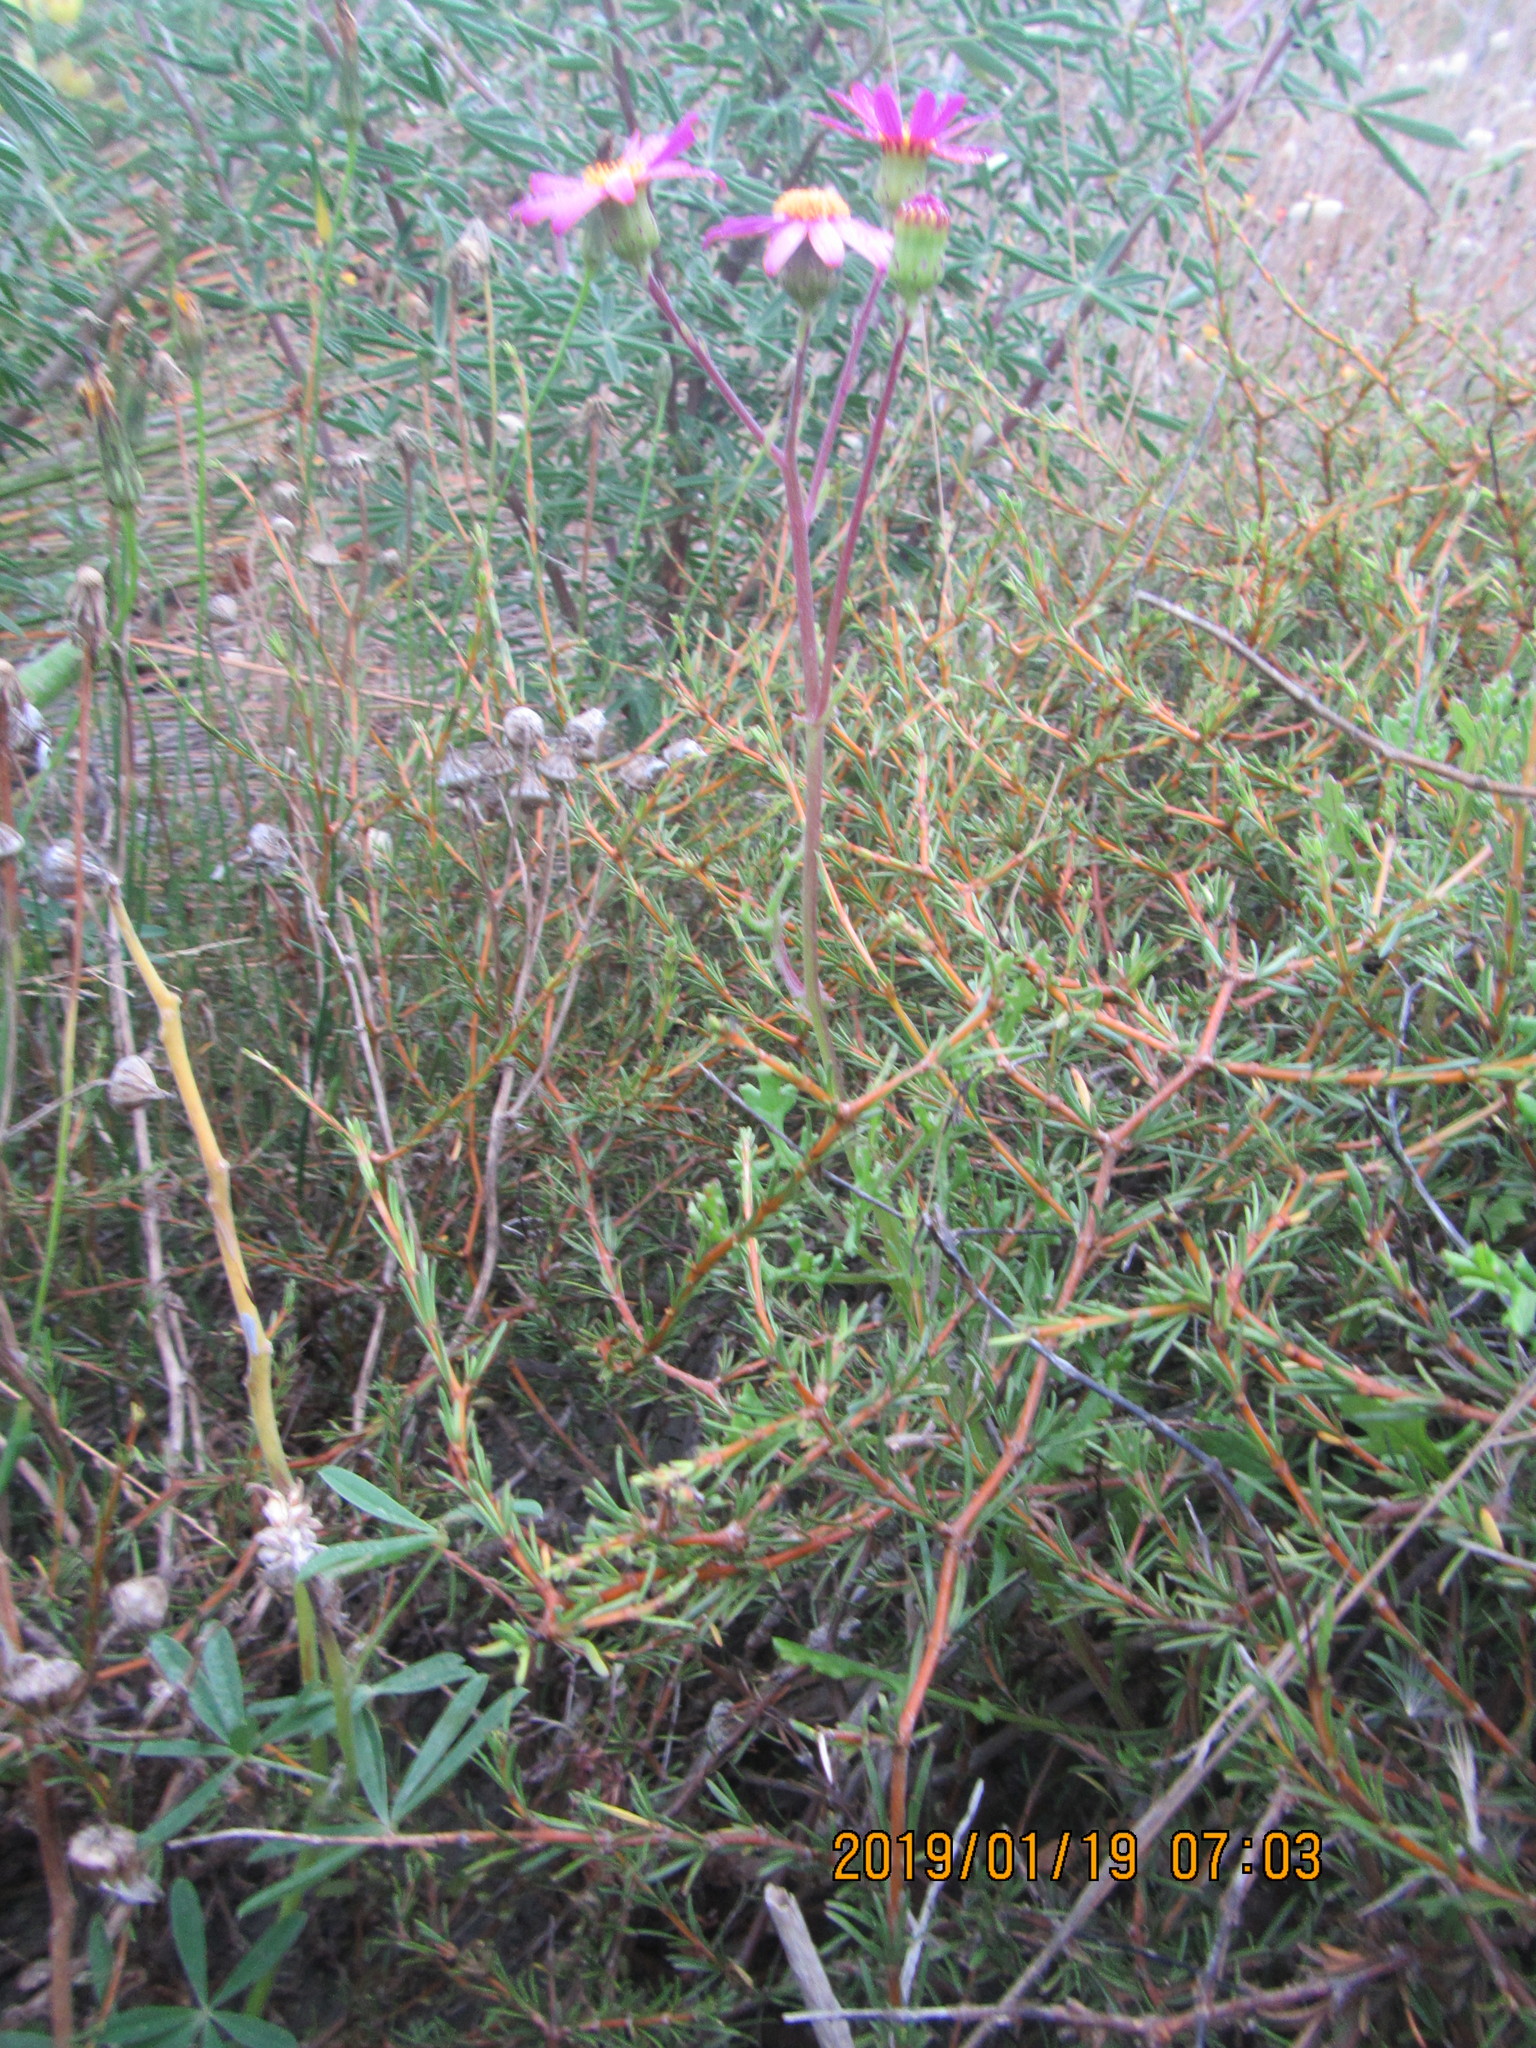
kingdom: Plantae
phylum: Tracheophyta
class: Magnoliopsida
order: Asterales
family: Asteraceae
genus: Senecio
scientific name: Senecio elegans
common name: Purple groundsel
